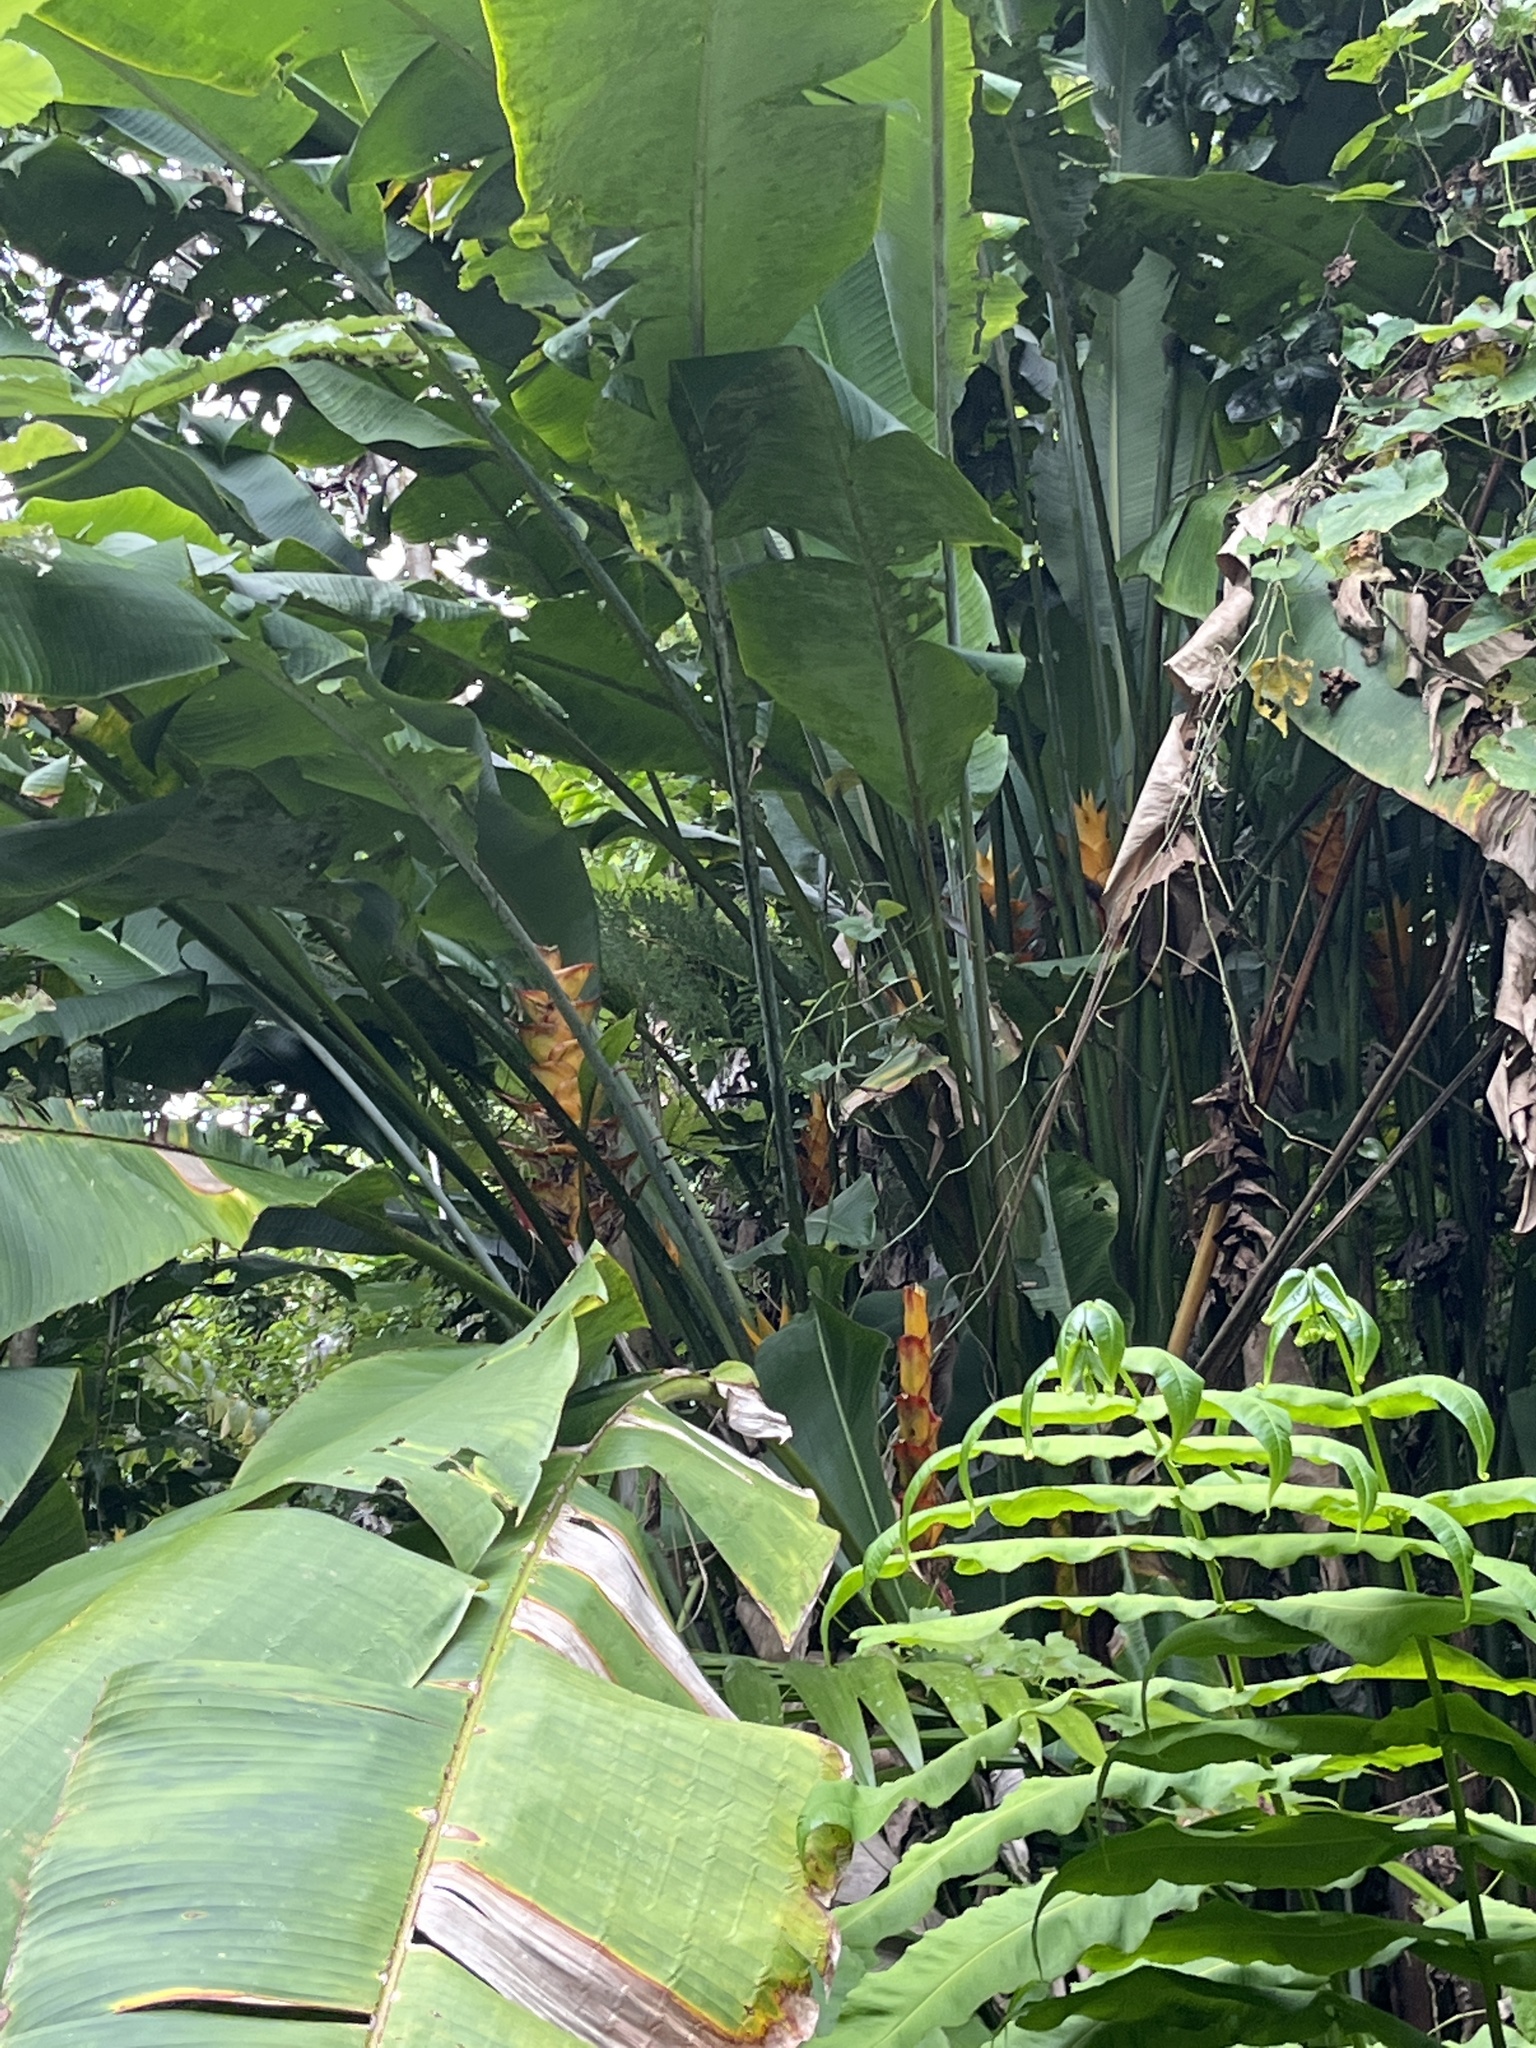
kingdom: Plantae
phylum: Tracheophyta
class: Liliopsida
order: Zingiberales
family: Heliconiaceae
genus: Heliconia
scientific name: Heliconia caribaea
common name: Wild plantain
